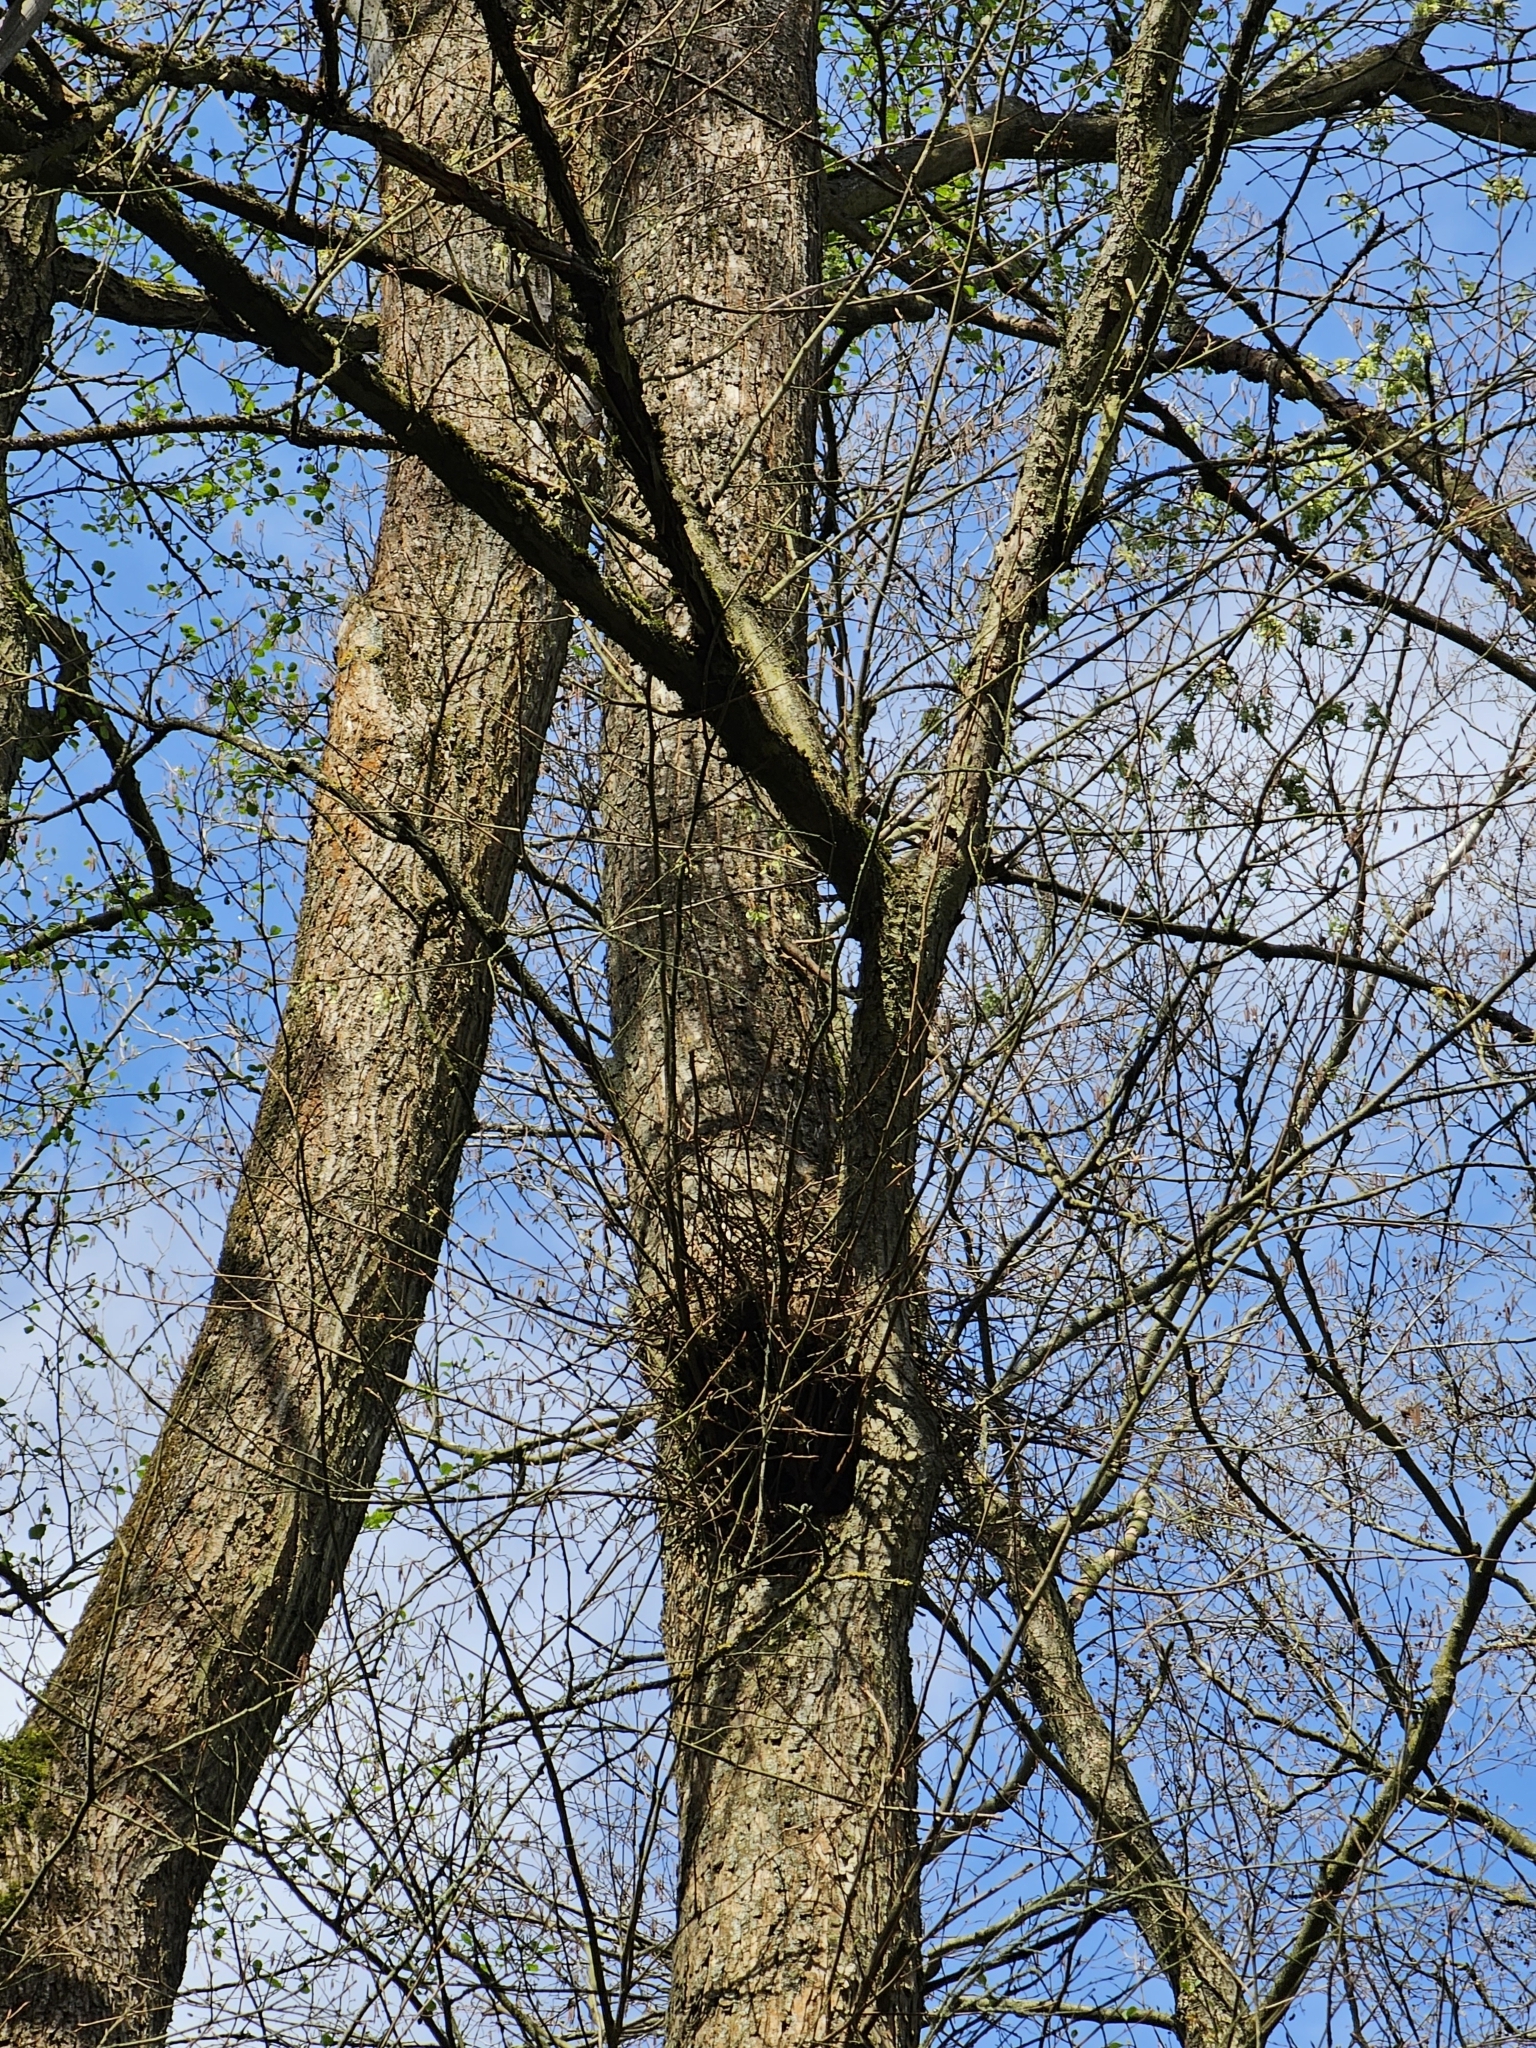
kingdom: Animalia
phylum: Chordata
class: Mammalia
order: Rodentia
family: Sciuridae
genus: Sciurus
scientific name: Sciurus vulgaris
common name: Eurasian red squirrel
